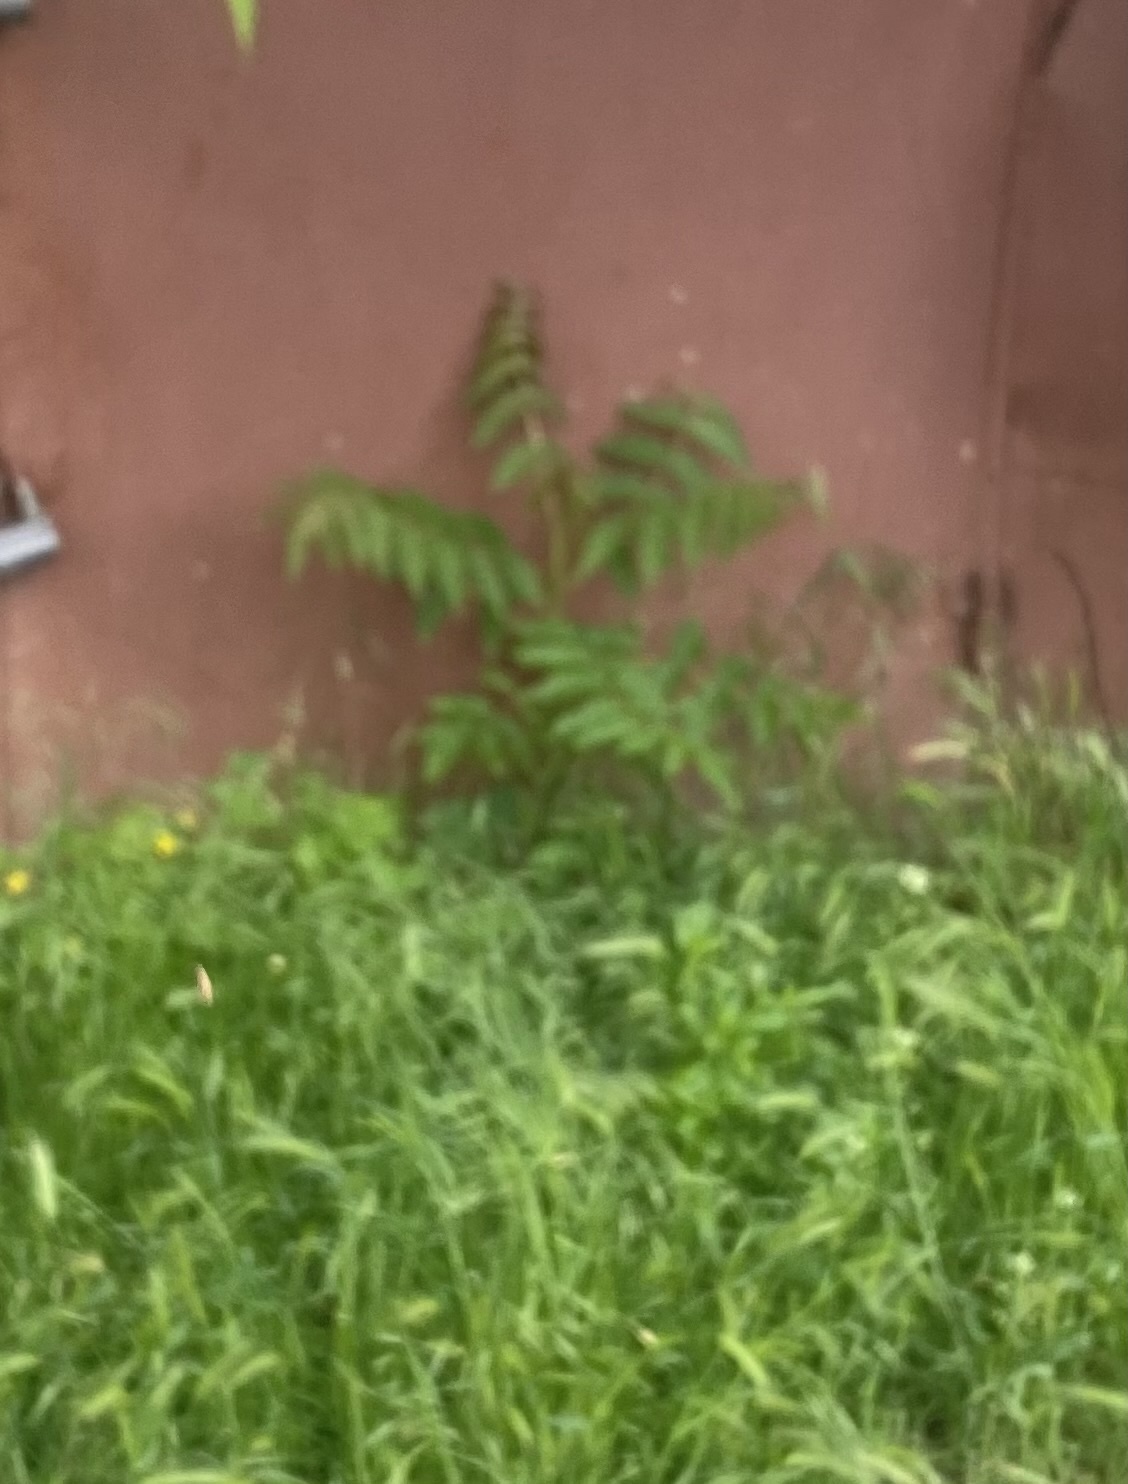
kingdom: Plantae
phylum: Tracheophyta
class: Magnoliopsida
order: Sapindales
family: Simaroubaceae
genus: Ailanthus
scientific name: Ailanthus altissima
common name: Tree-of-heaven
